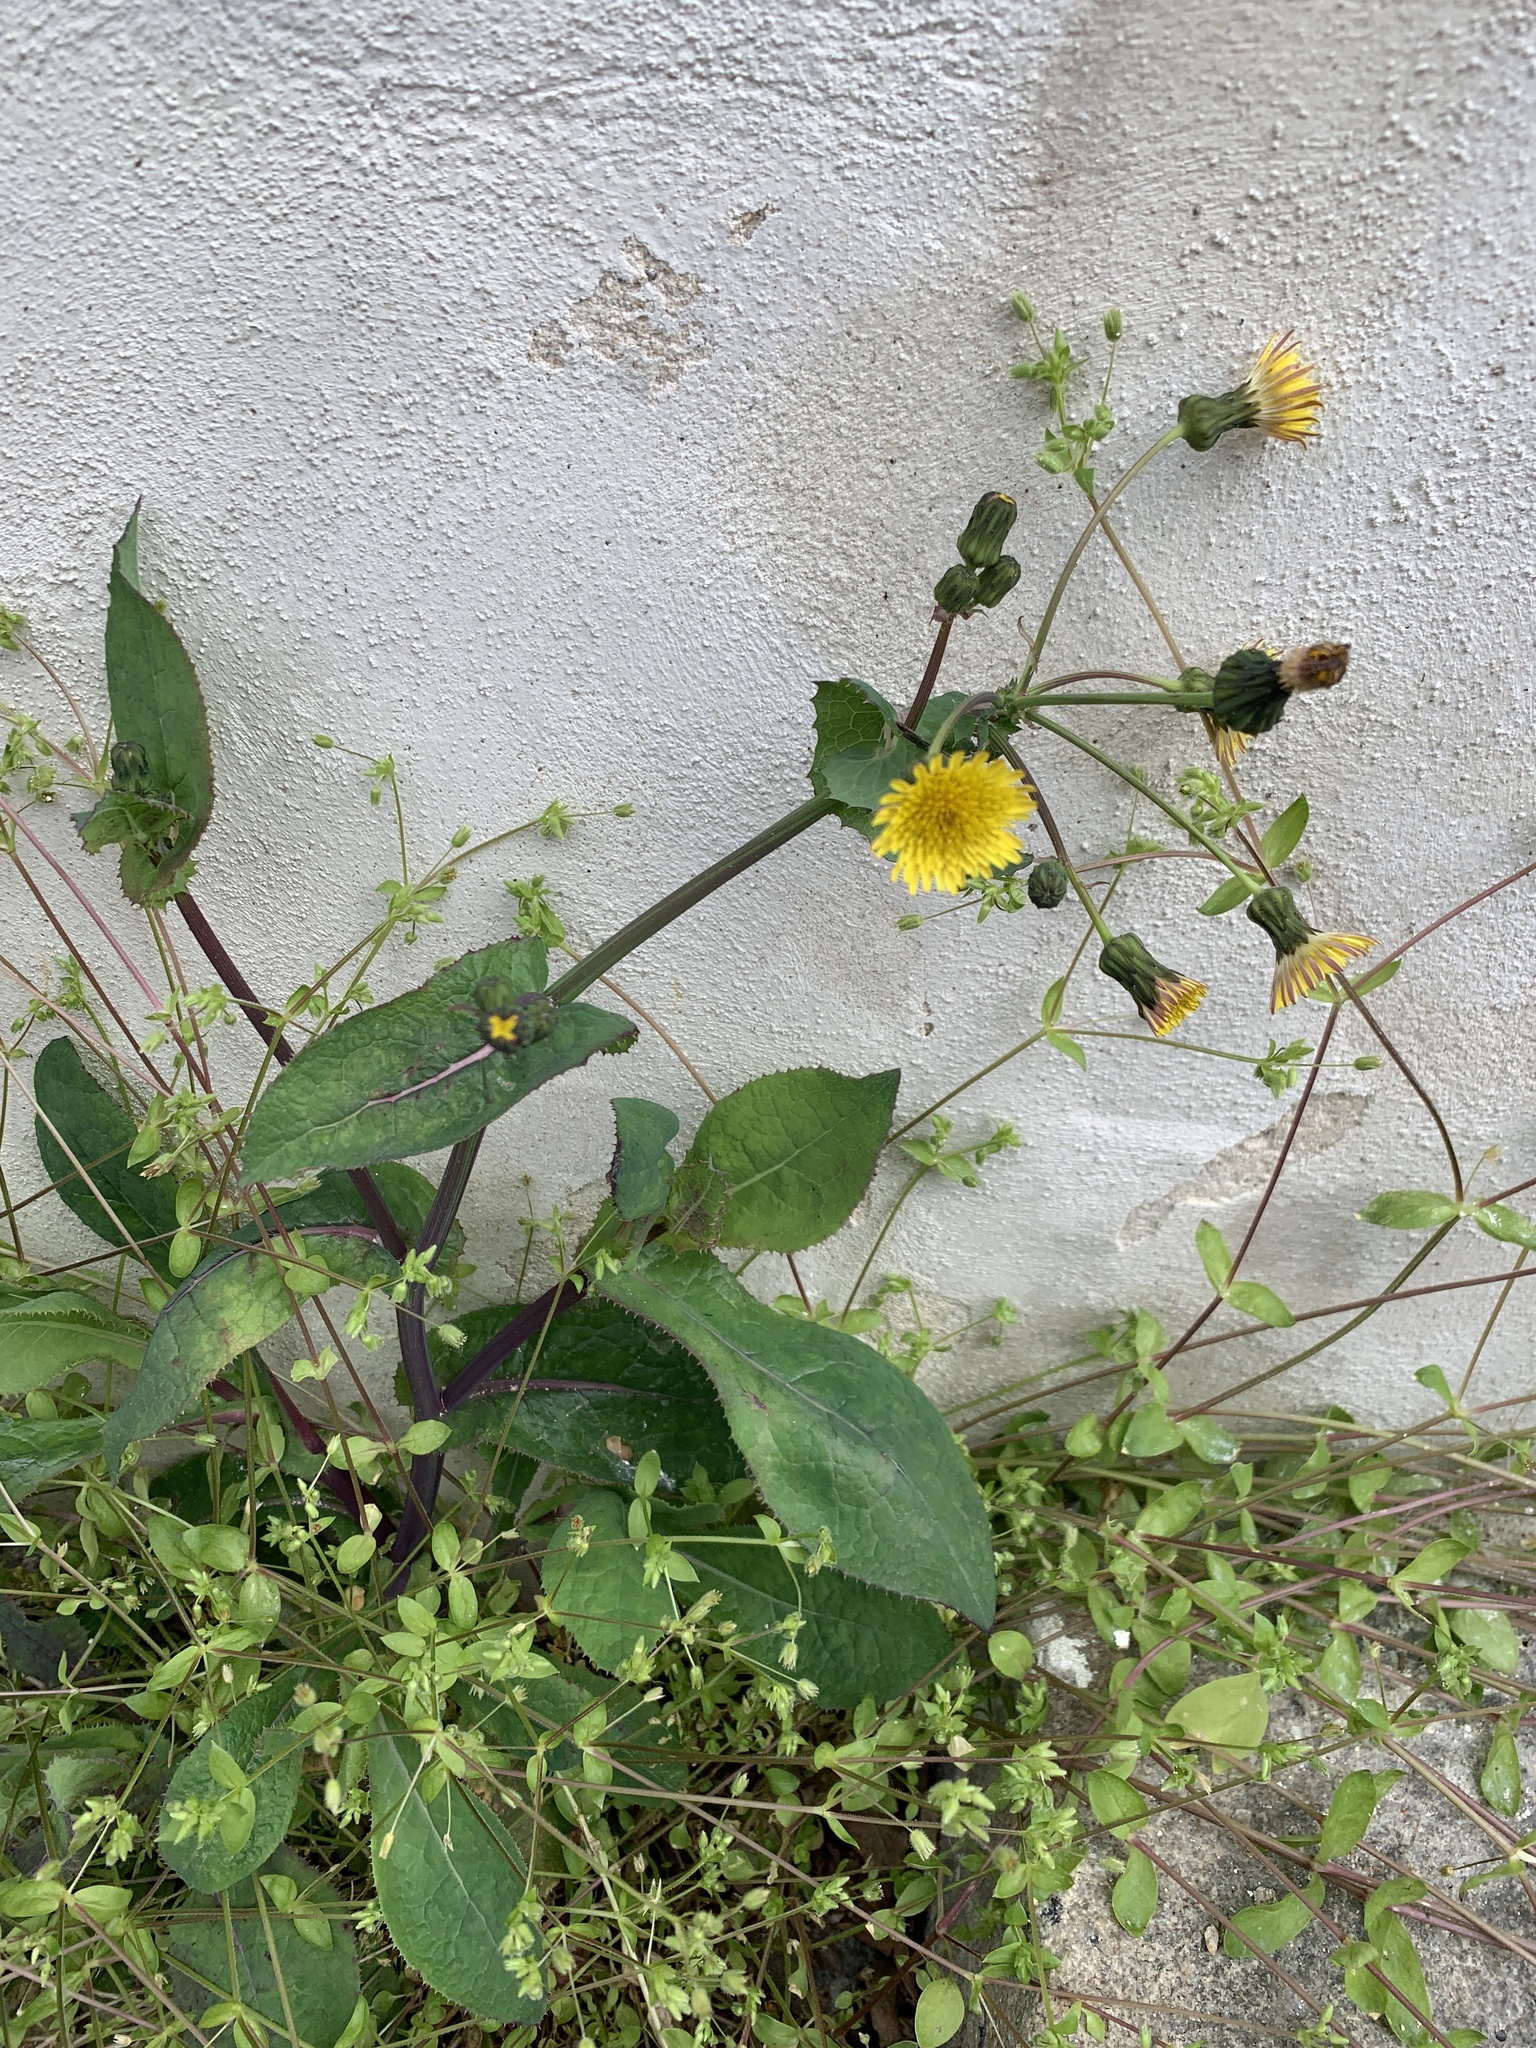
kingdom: Plantae
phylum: Tracheophyta
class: Magnoliopsida
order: Asterales
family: Asteraceae
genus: Sonchus
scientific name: Sonchus oleraceus
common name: Common sowthistle
